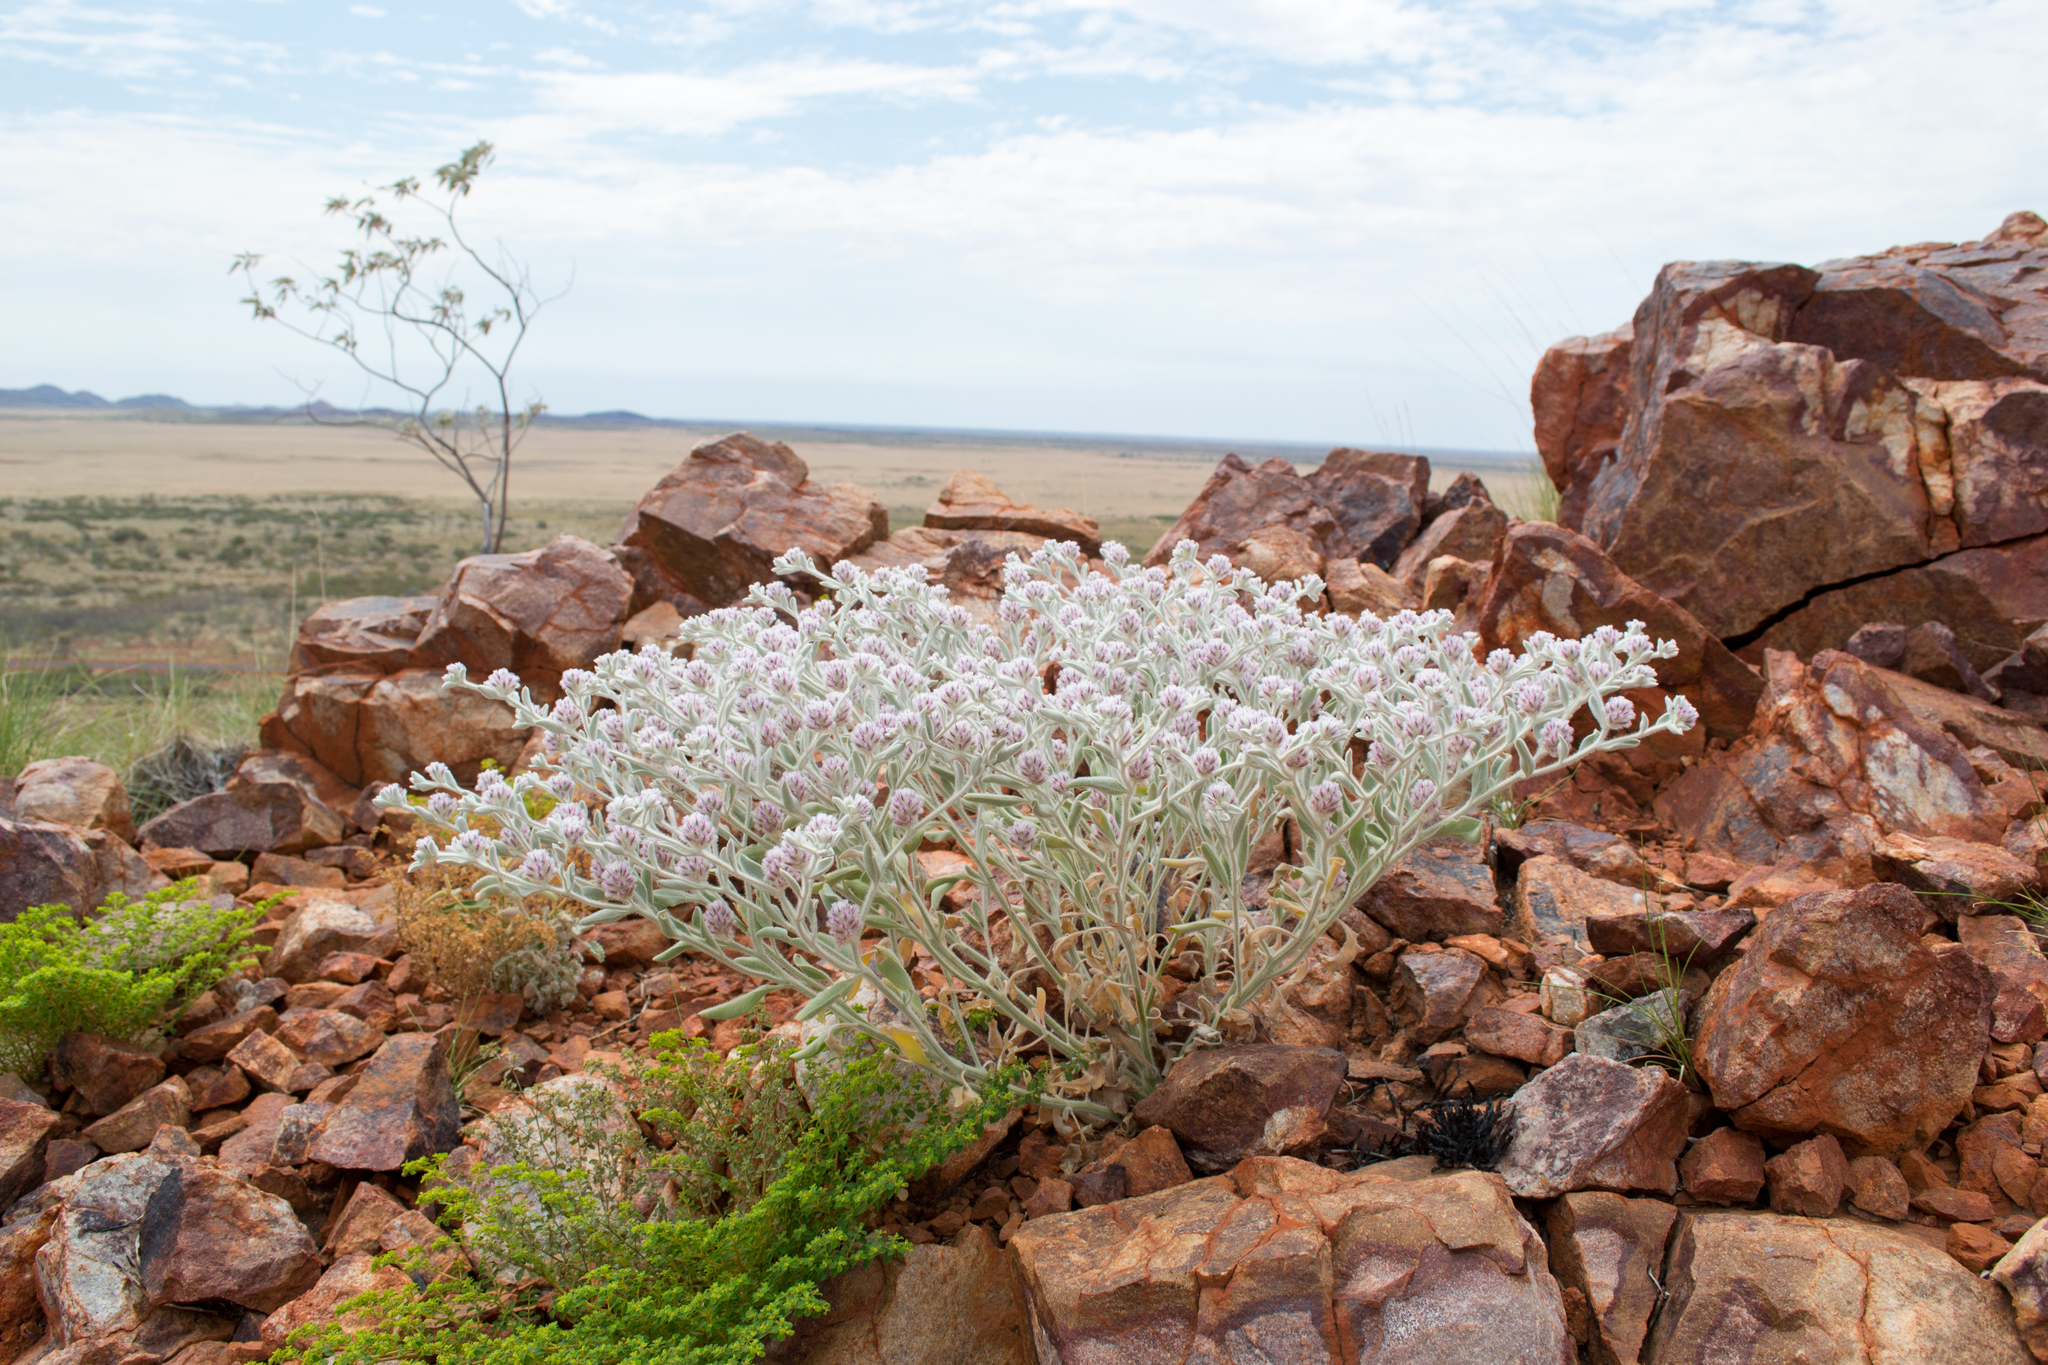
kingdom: Plantae
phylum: Tracheophyta
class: Magnoliopsida
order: Caryophyllales
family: Amaranthaceae
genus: Ptilotus
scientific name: Ptilotus incanus
